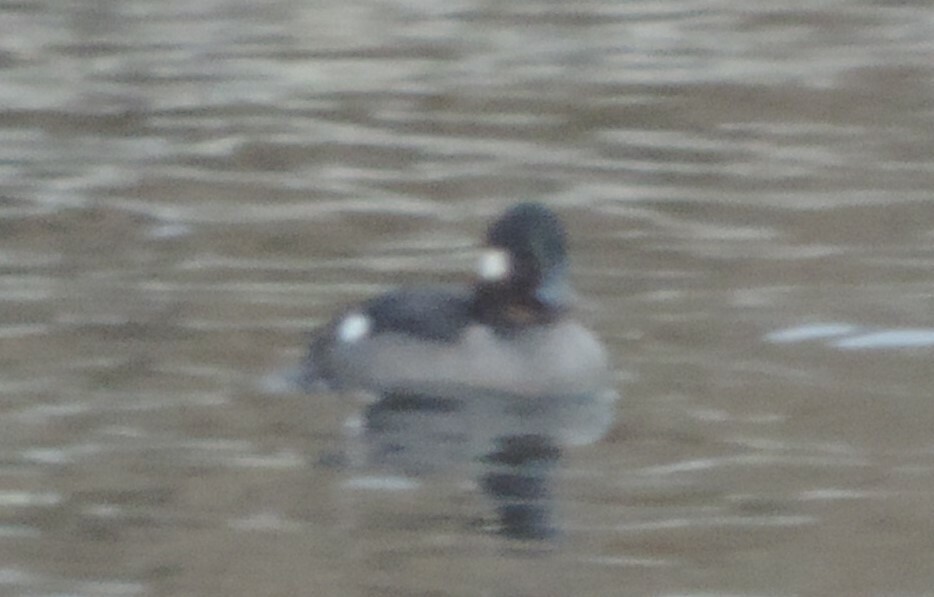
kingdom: Animalia
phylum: Chordata
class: Aves
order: Anseriformes
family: Anatidae
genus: Bucephala
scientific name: Bucephala albeola
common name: Bufflehead
